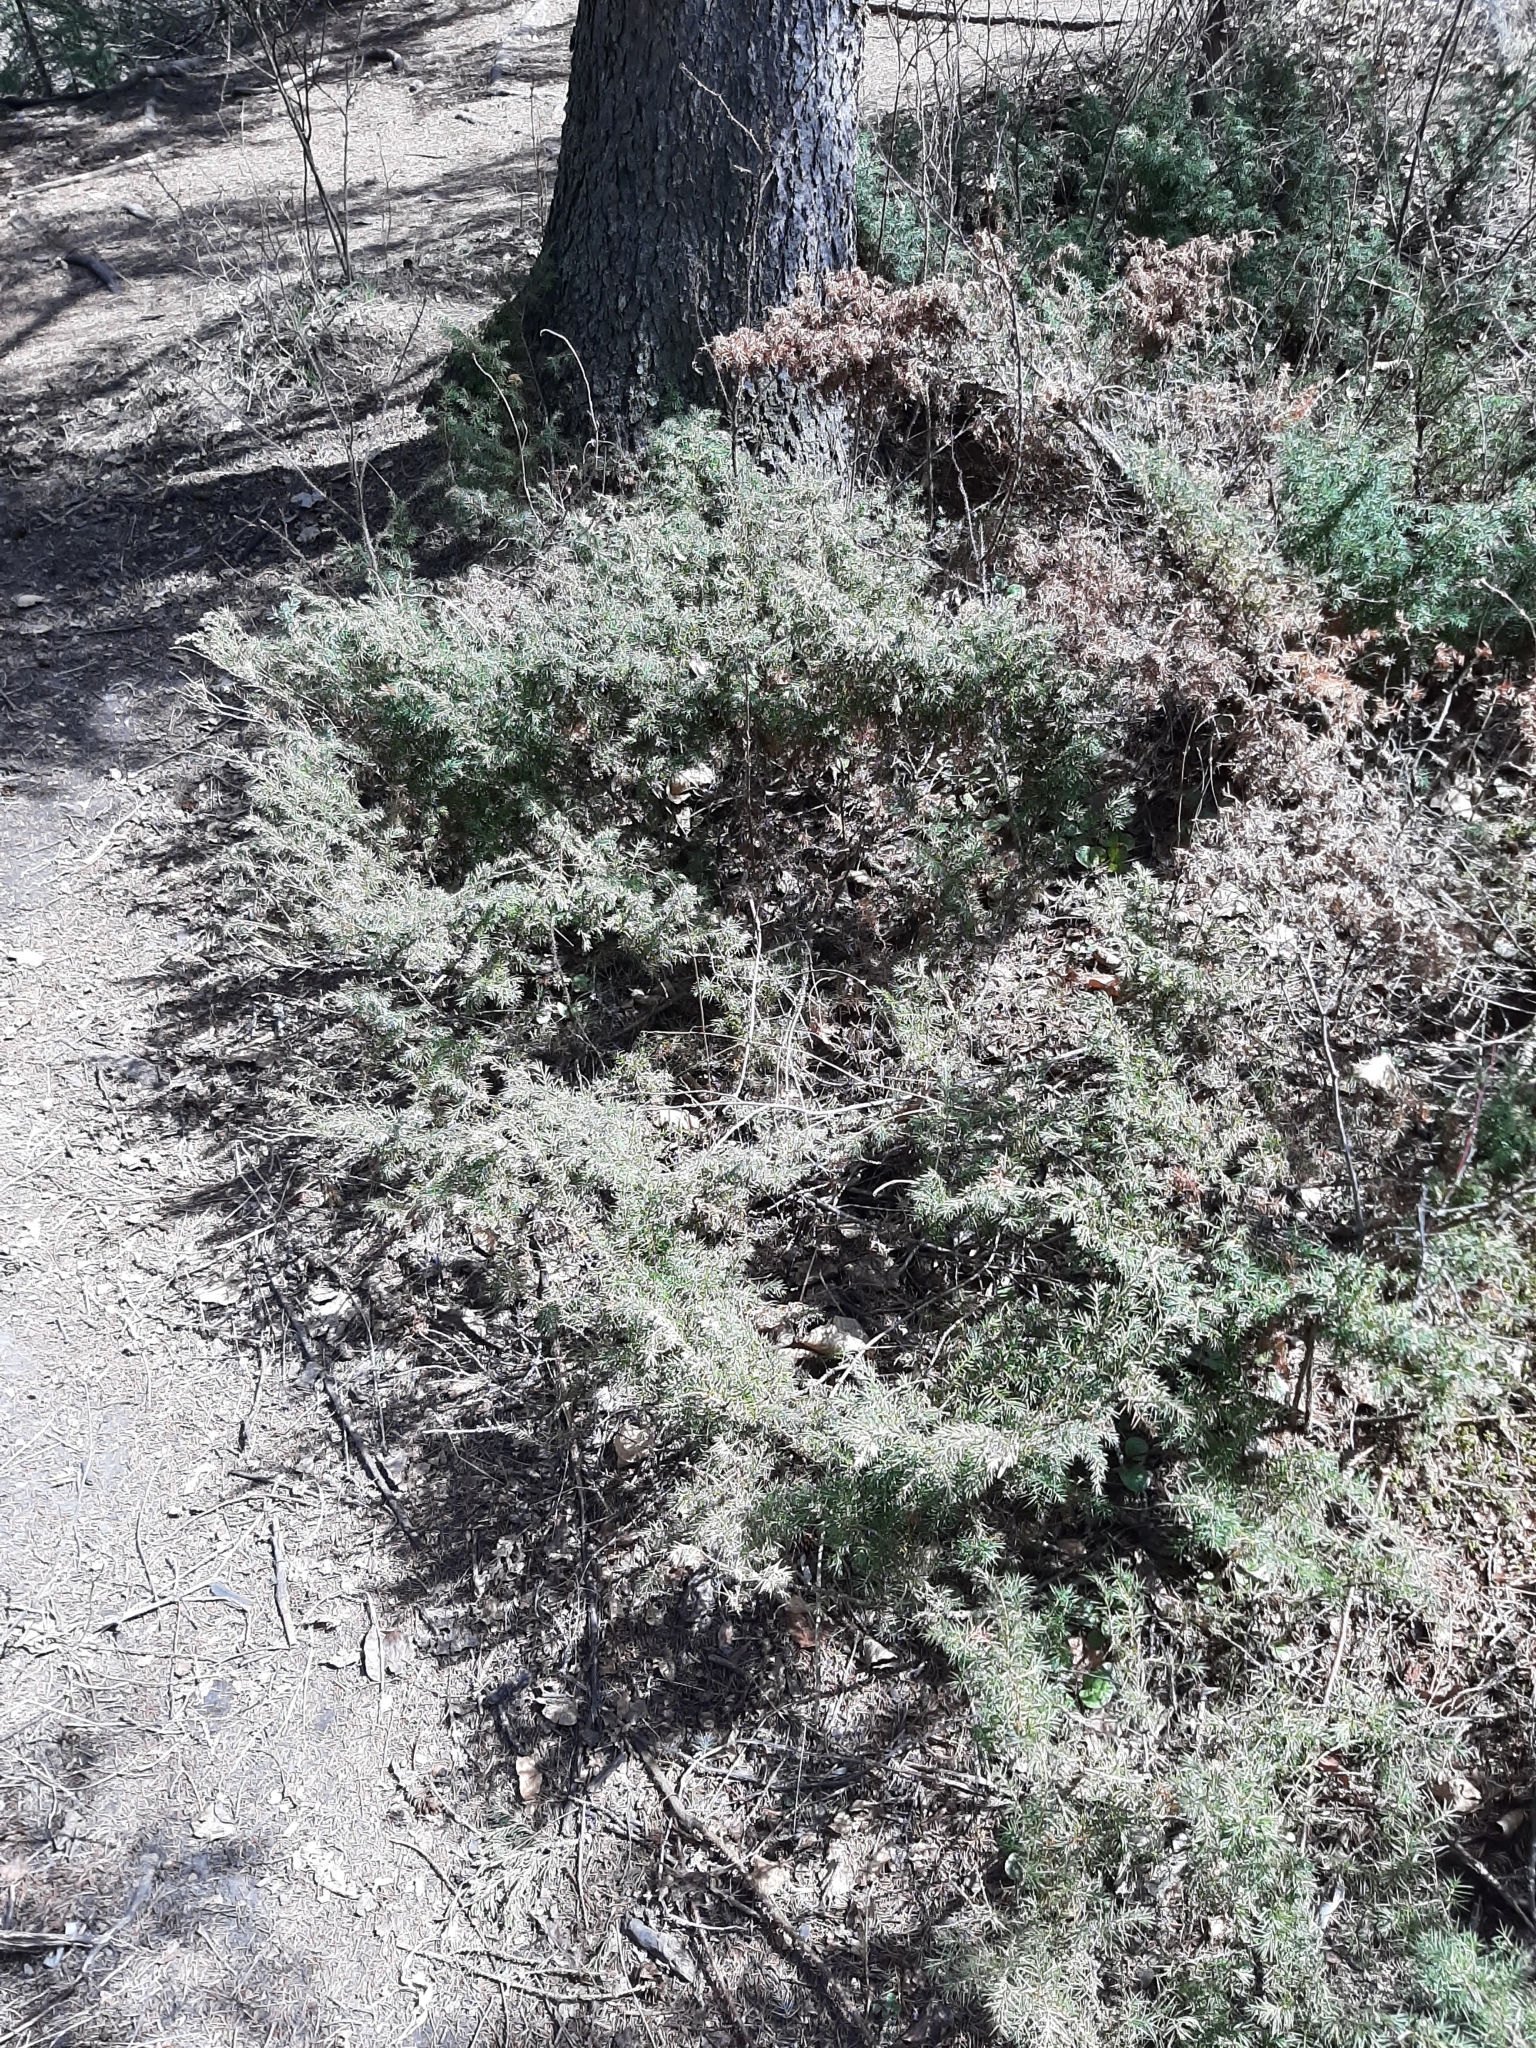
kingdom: Plantae
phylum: Tracheophyta
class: Pinopsida
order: Pinales
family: Cupressaceae
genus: Juniperus
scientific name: Juniperus communis
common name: Common juniper
